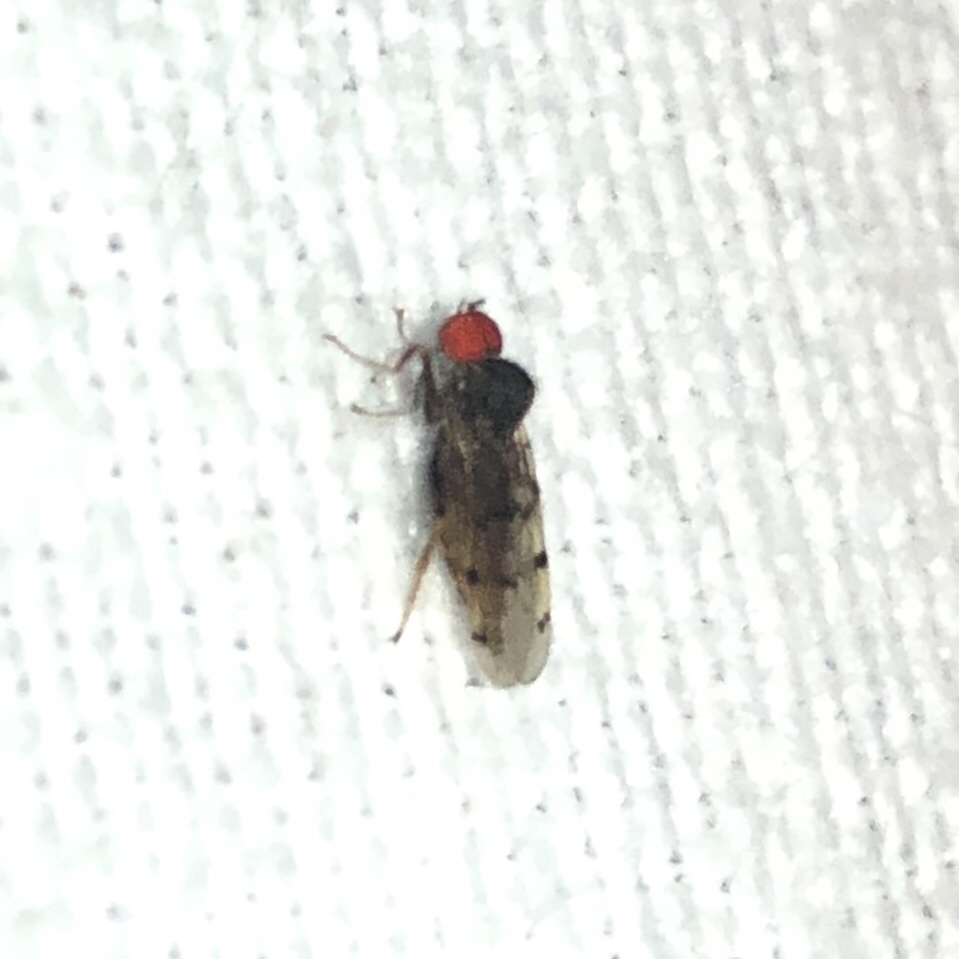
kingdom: Animalia
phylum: Arthropoda
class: Insecta
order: Diptera
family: Hybotidae
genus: Syneches
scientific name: Syneches simplex
